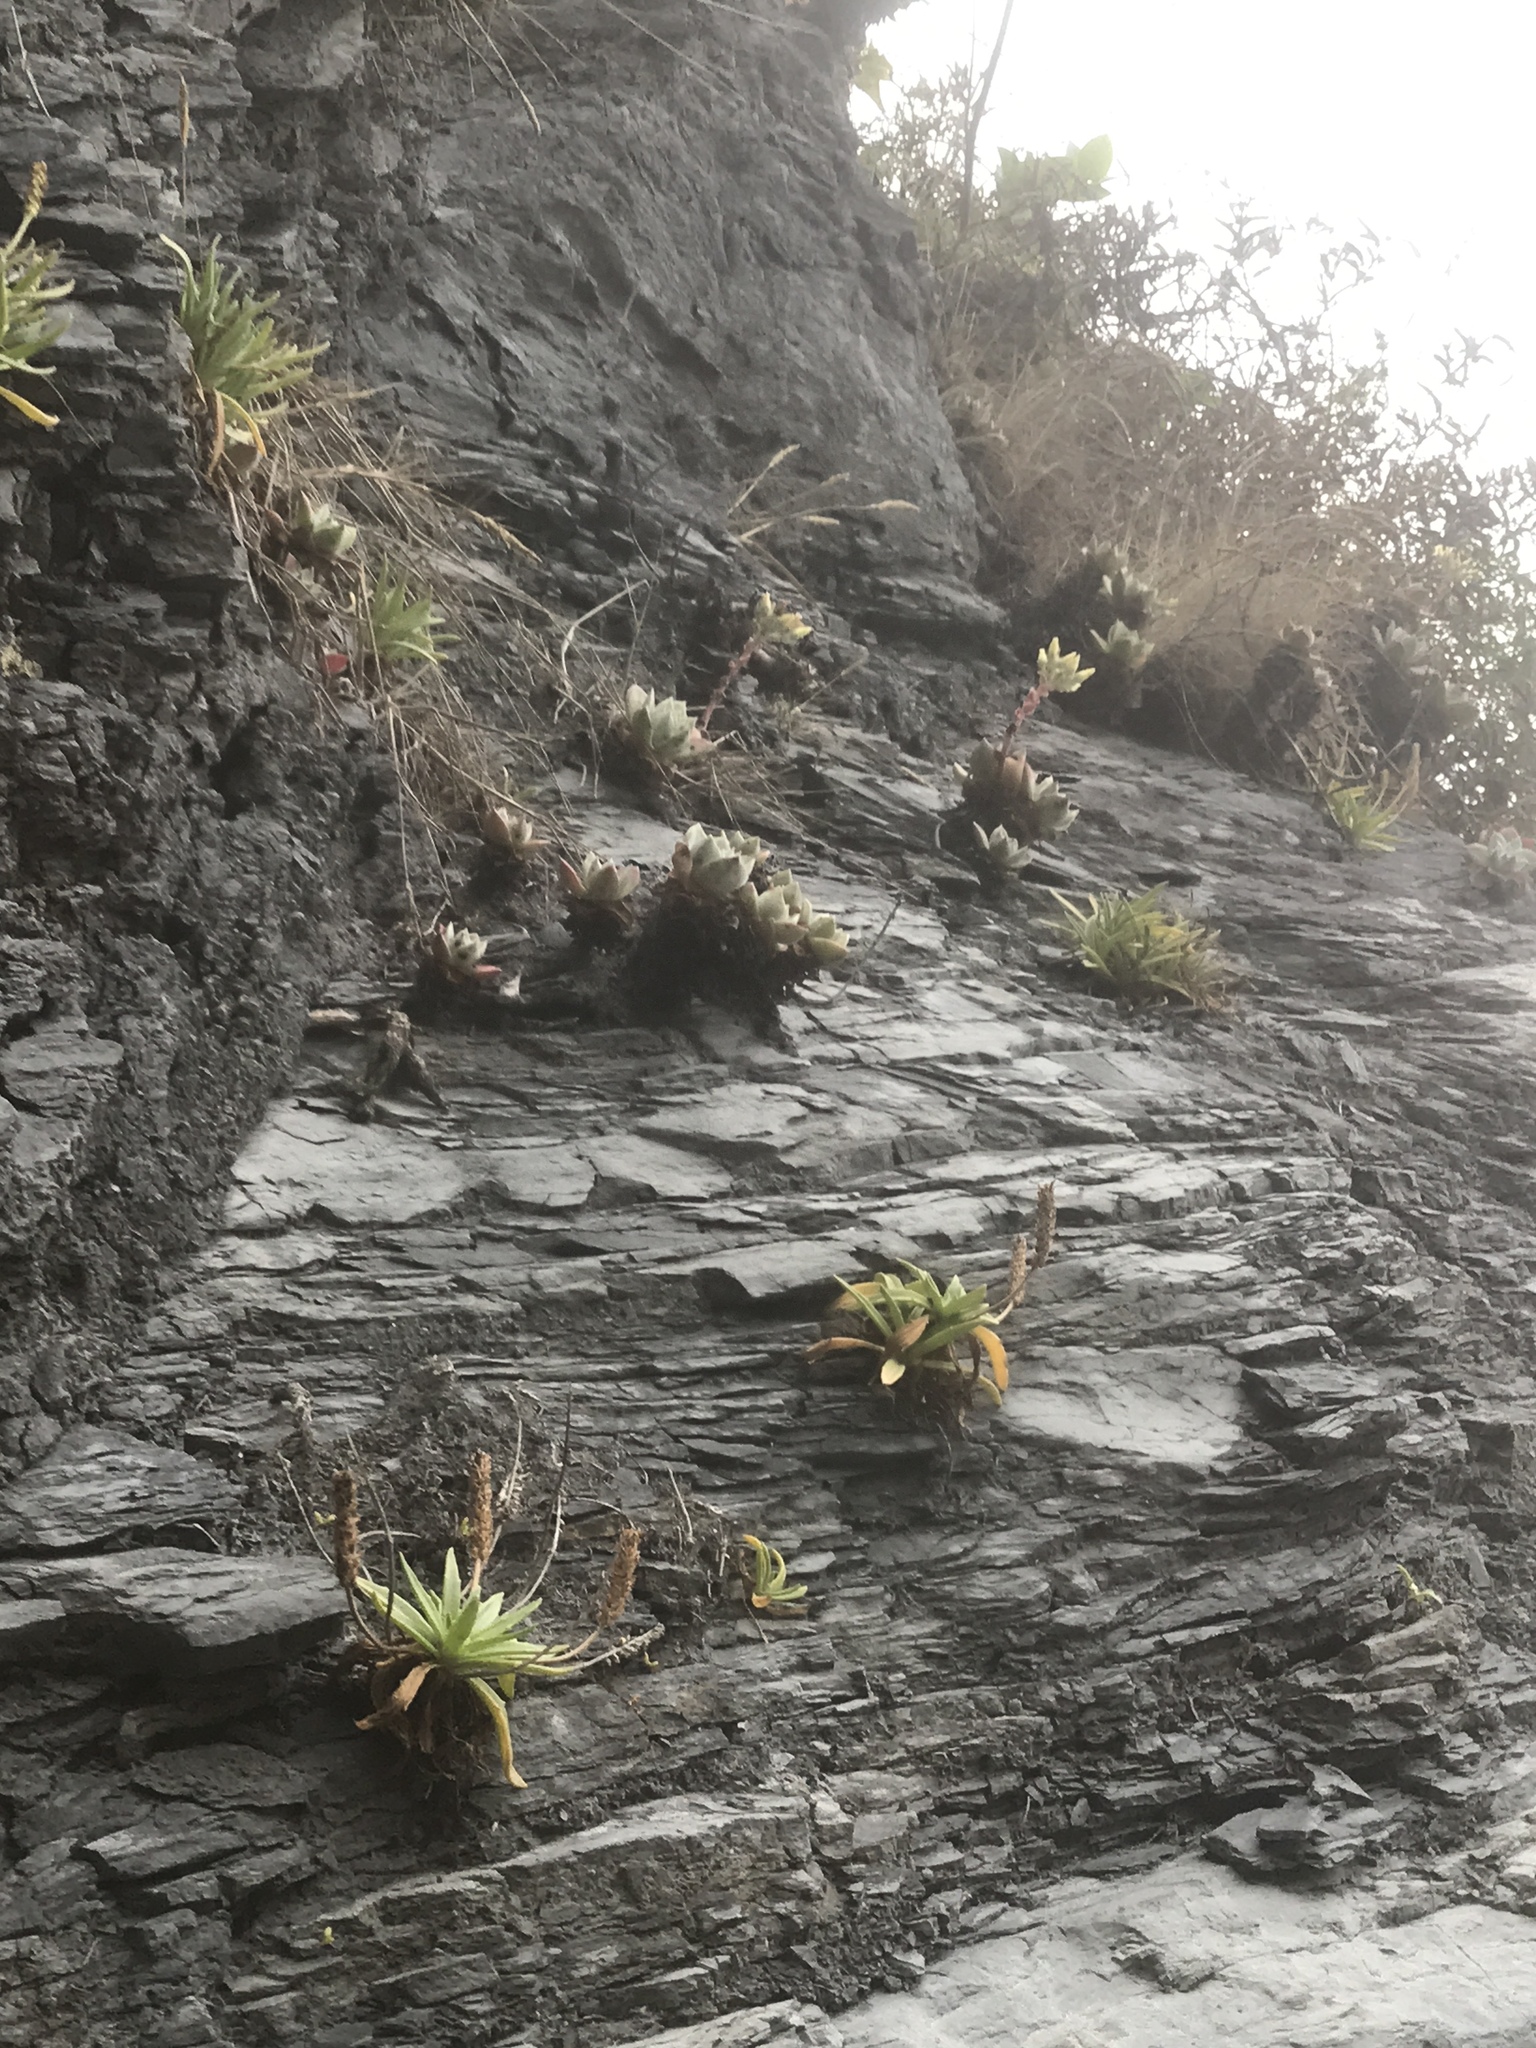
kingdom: Plantae
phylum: Tracheophyta
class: Magnoliopsida
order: Saxifragales
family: Crassulaceae
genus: Dudleya
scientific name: Dudleya farinosa
